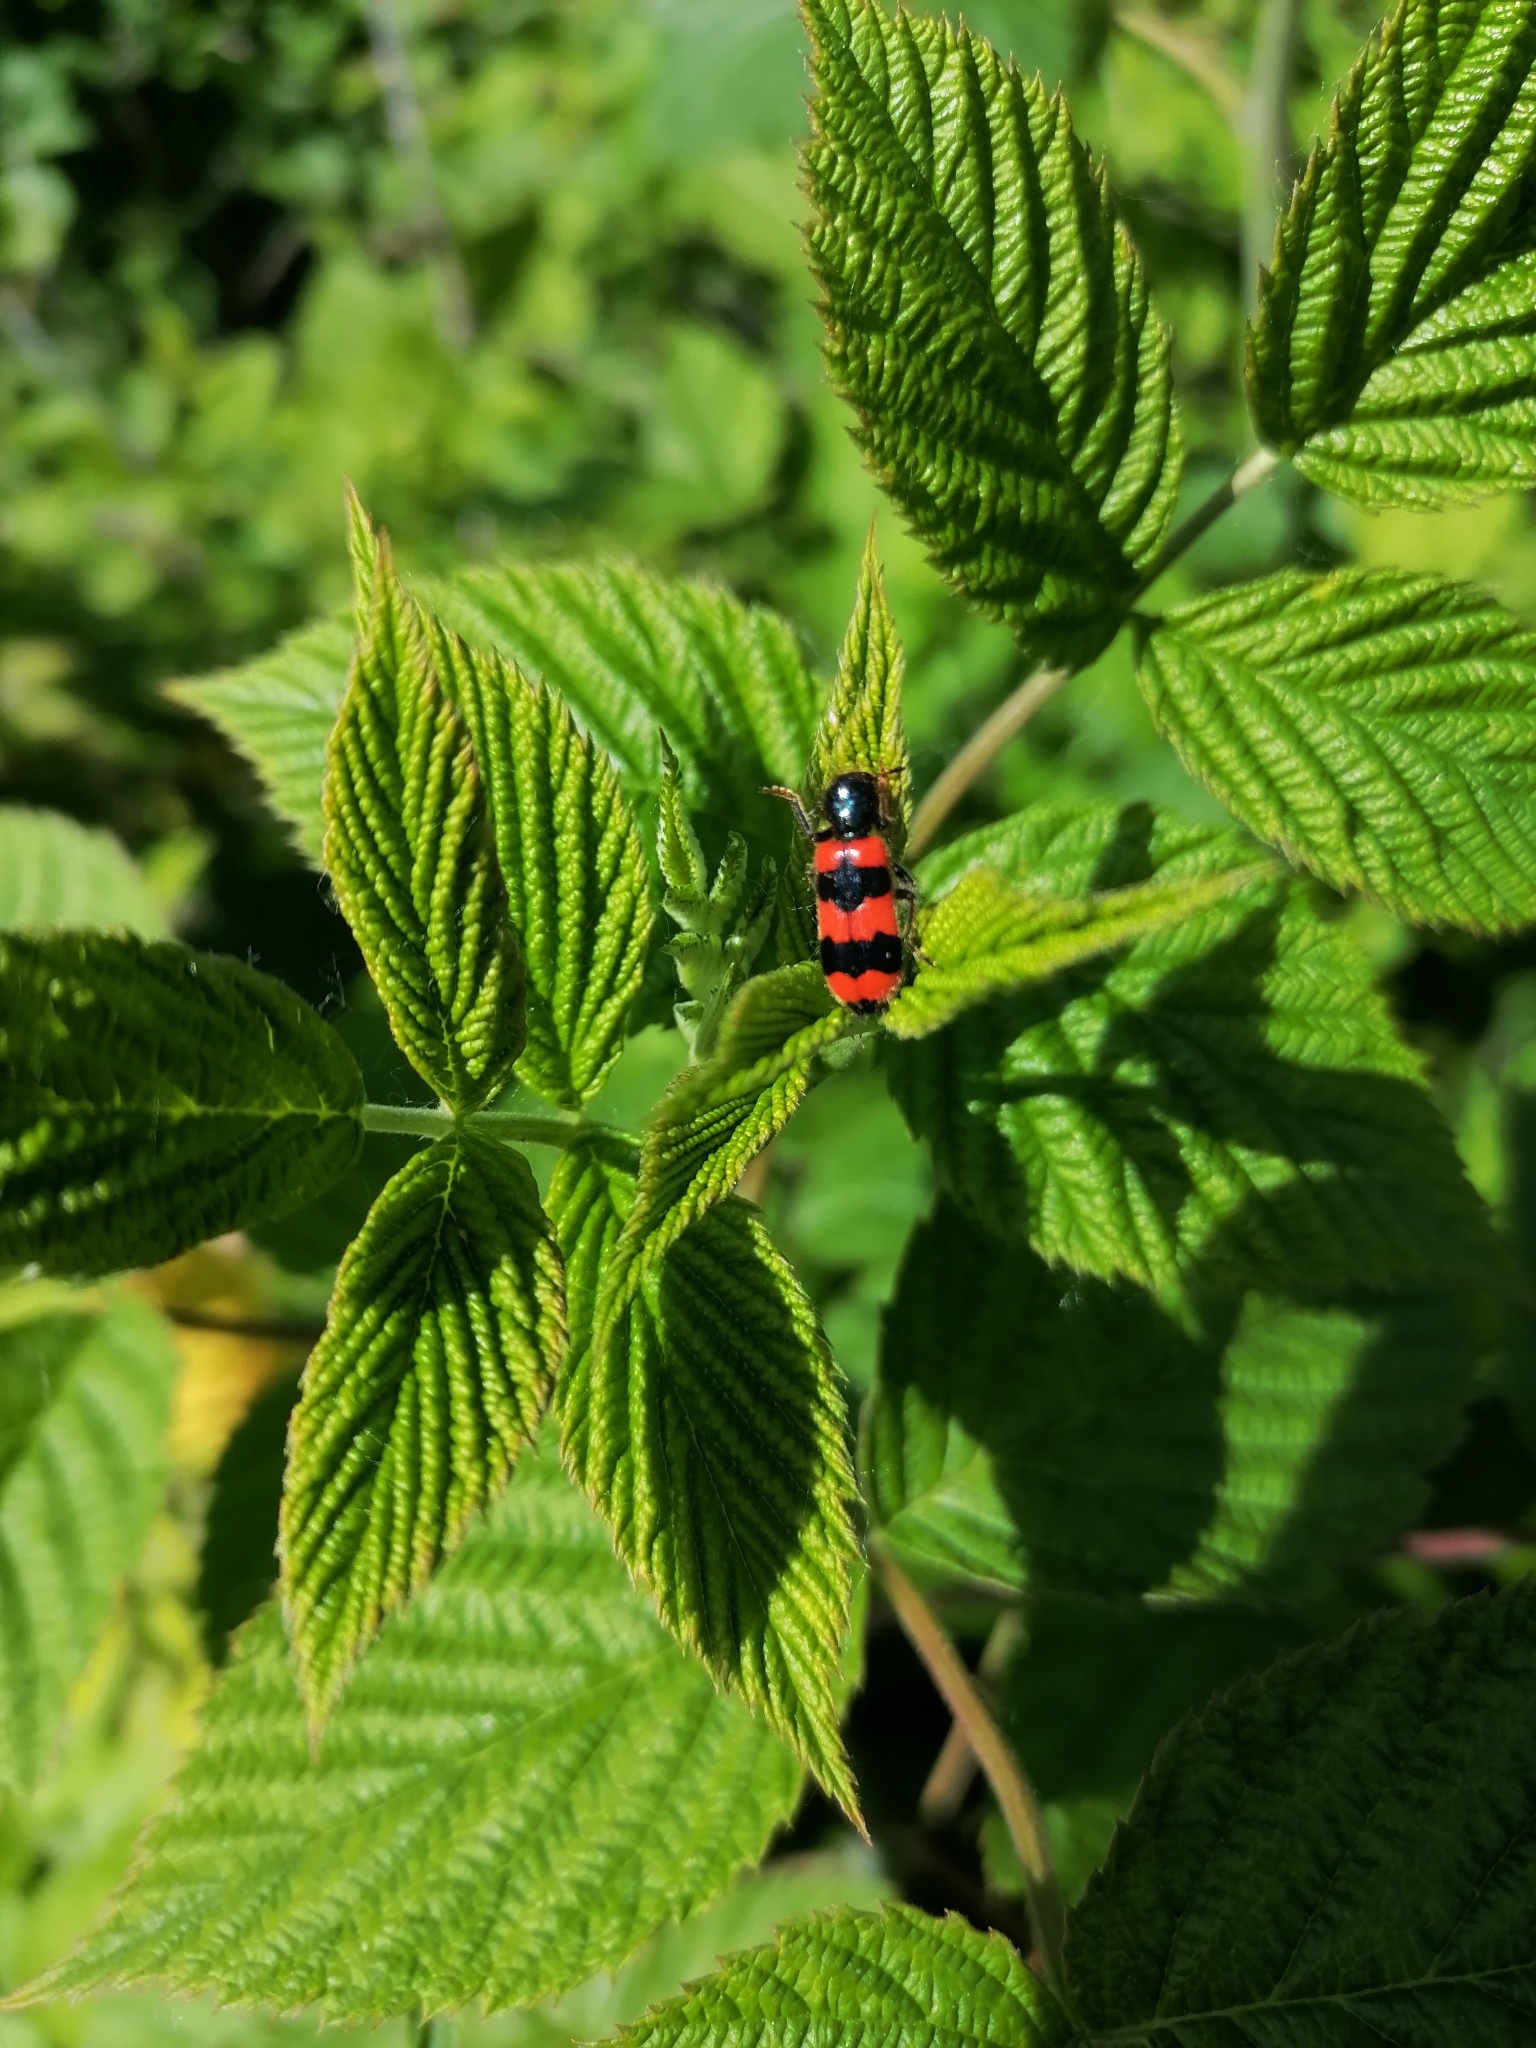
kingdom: Animalia
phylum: Arthropoda
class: Insecta
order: Coleoptera
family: Cleridae
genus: Trichodes
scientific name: Trichodes apiarius
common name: Bee-eating beetle
